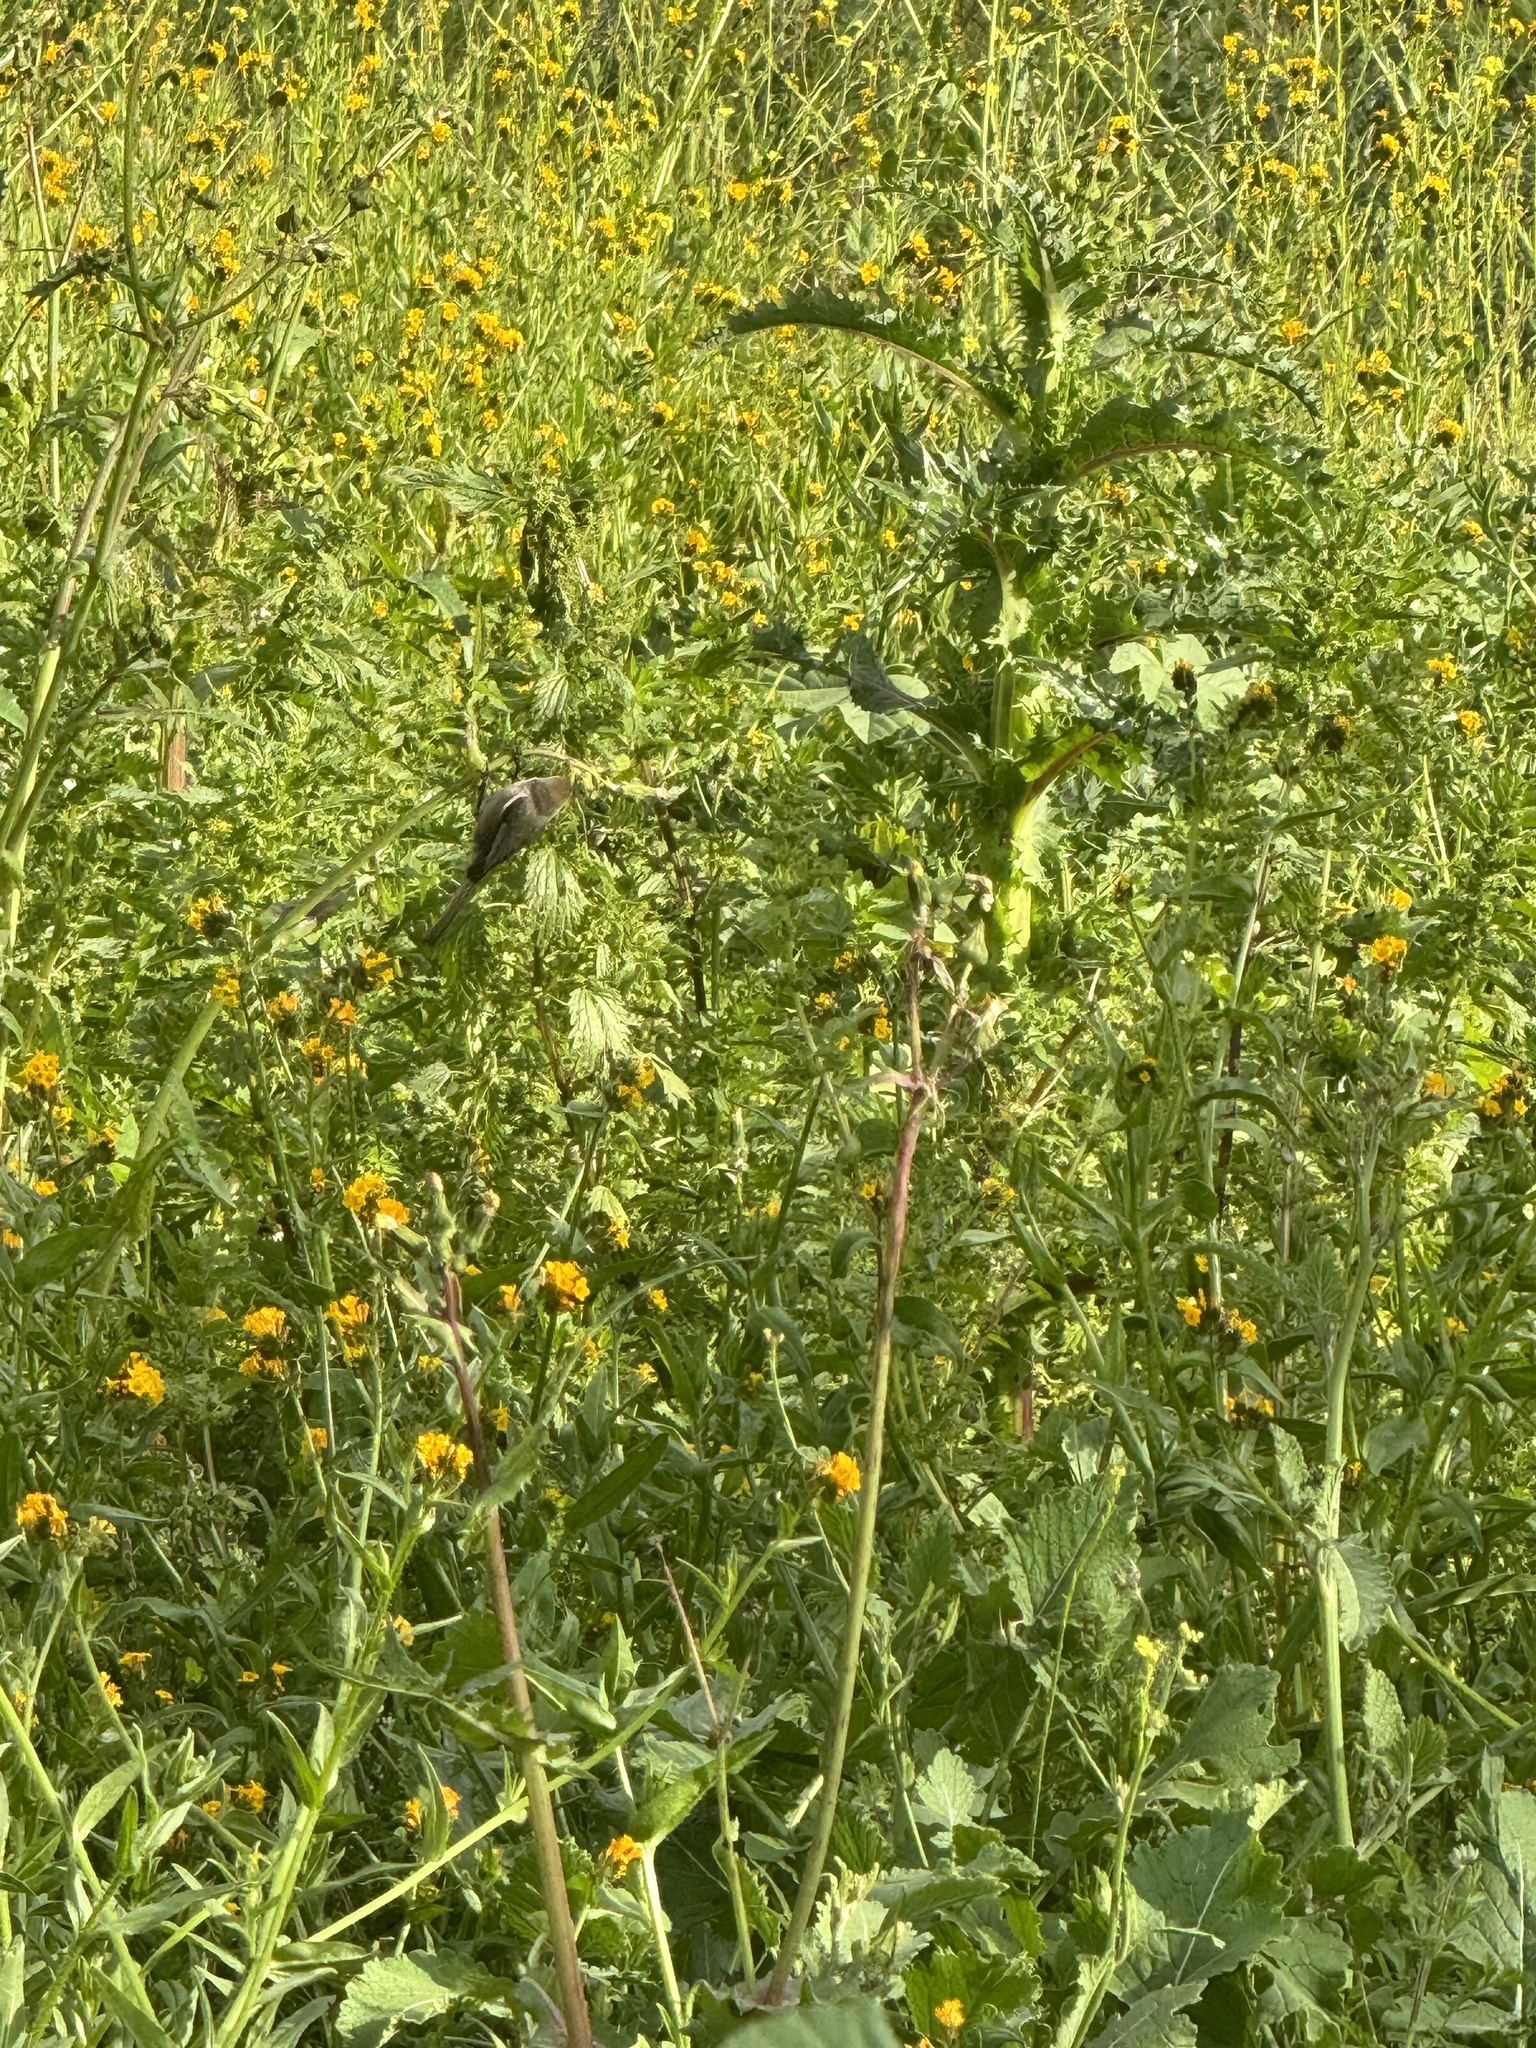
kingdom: Animalia
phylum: Chordata
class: Aves
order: Passeriformes
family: Aegithalidae
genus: Psaltriparus
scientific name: Psaltriparus minimus
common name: American bushtit
